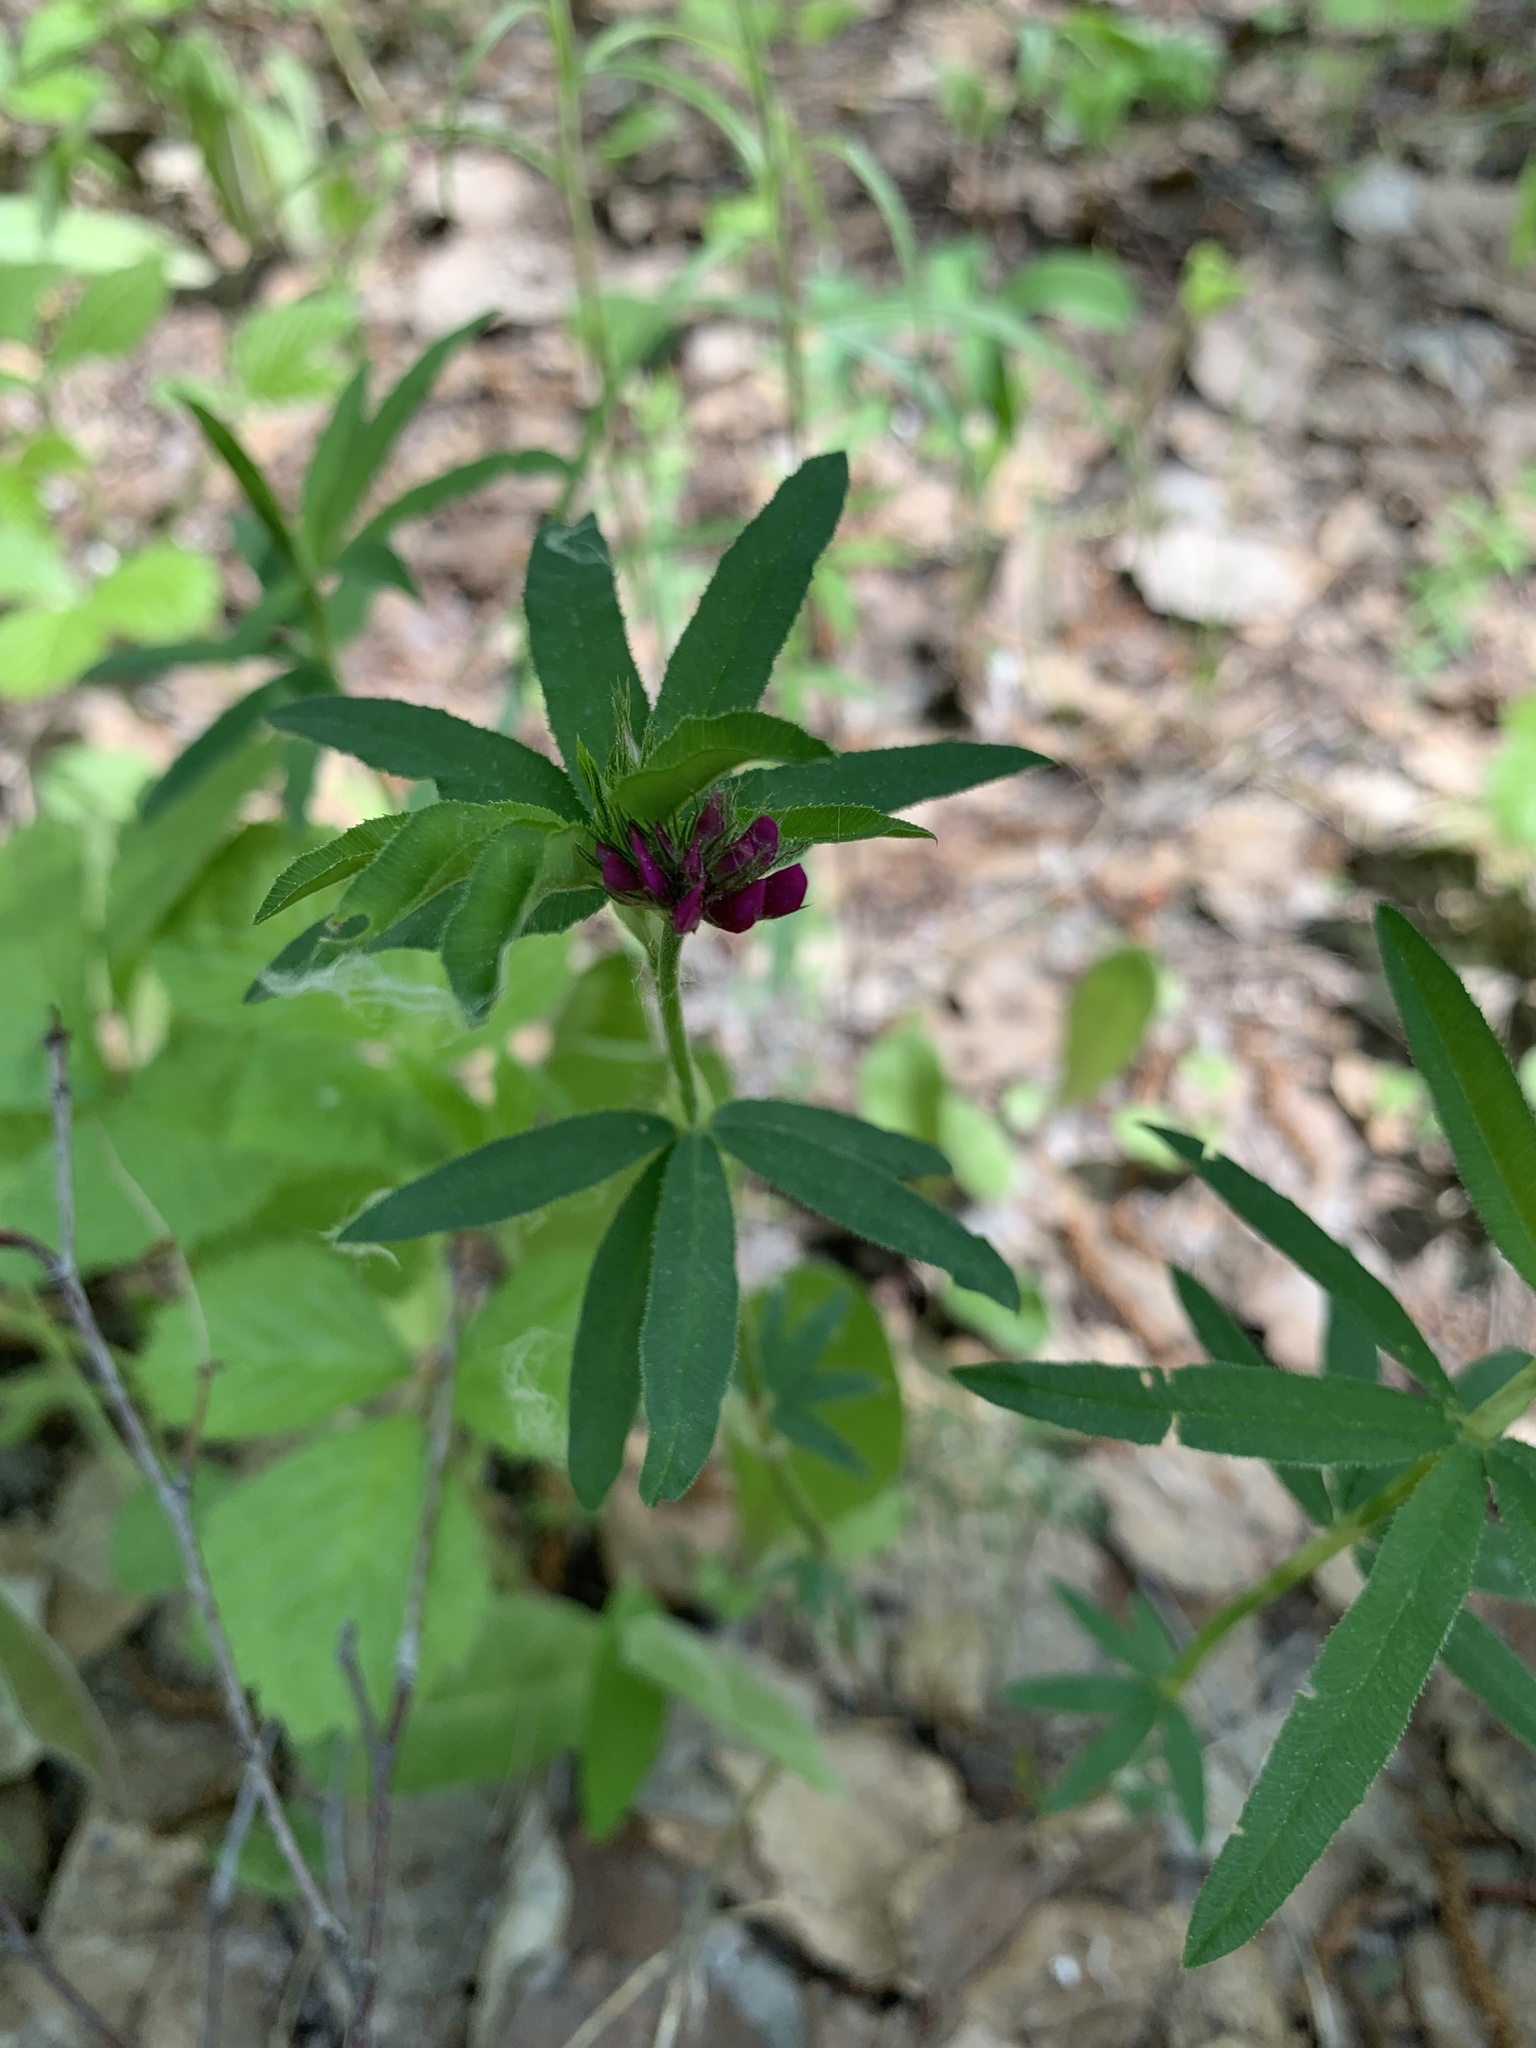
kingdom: Plantae
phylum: Tracheophyta
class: Magnoliopsida
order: Fabales
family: Fabaceae
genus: Trifolium
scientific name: Trifolium lupinaster
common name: Lupine clover
